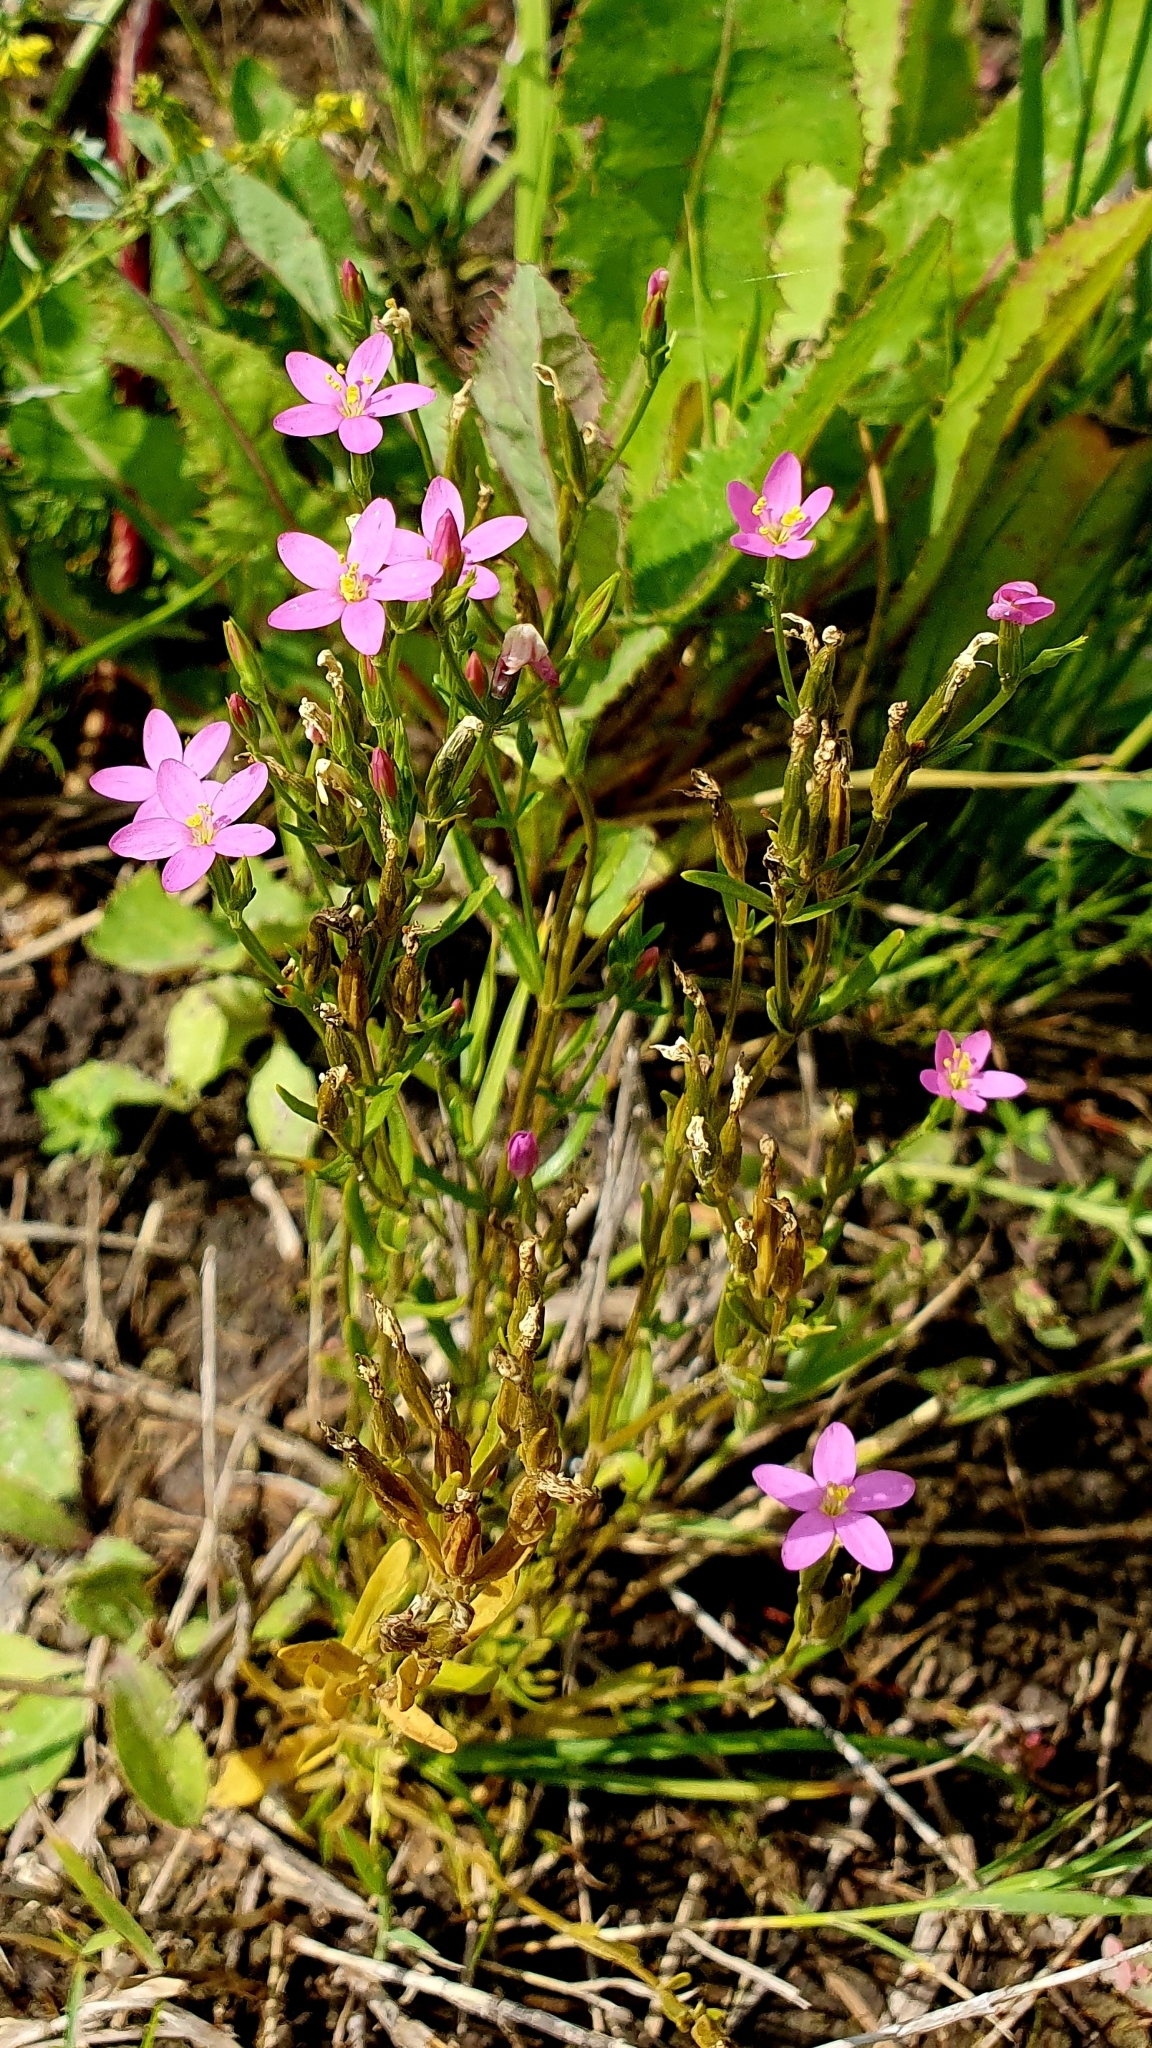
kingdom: Plantae
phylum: Tracheophyta
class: Magnoliopsida
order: Gentianales
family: Gentianaceae
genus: Centaurium
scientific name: Centaurium pulchellum
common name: Lesser centaury
